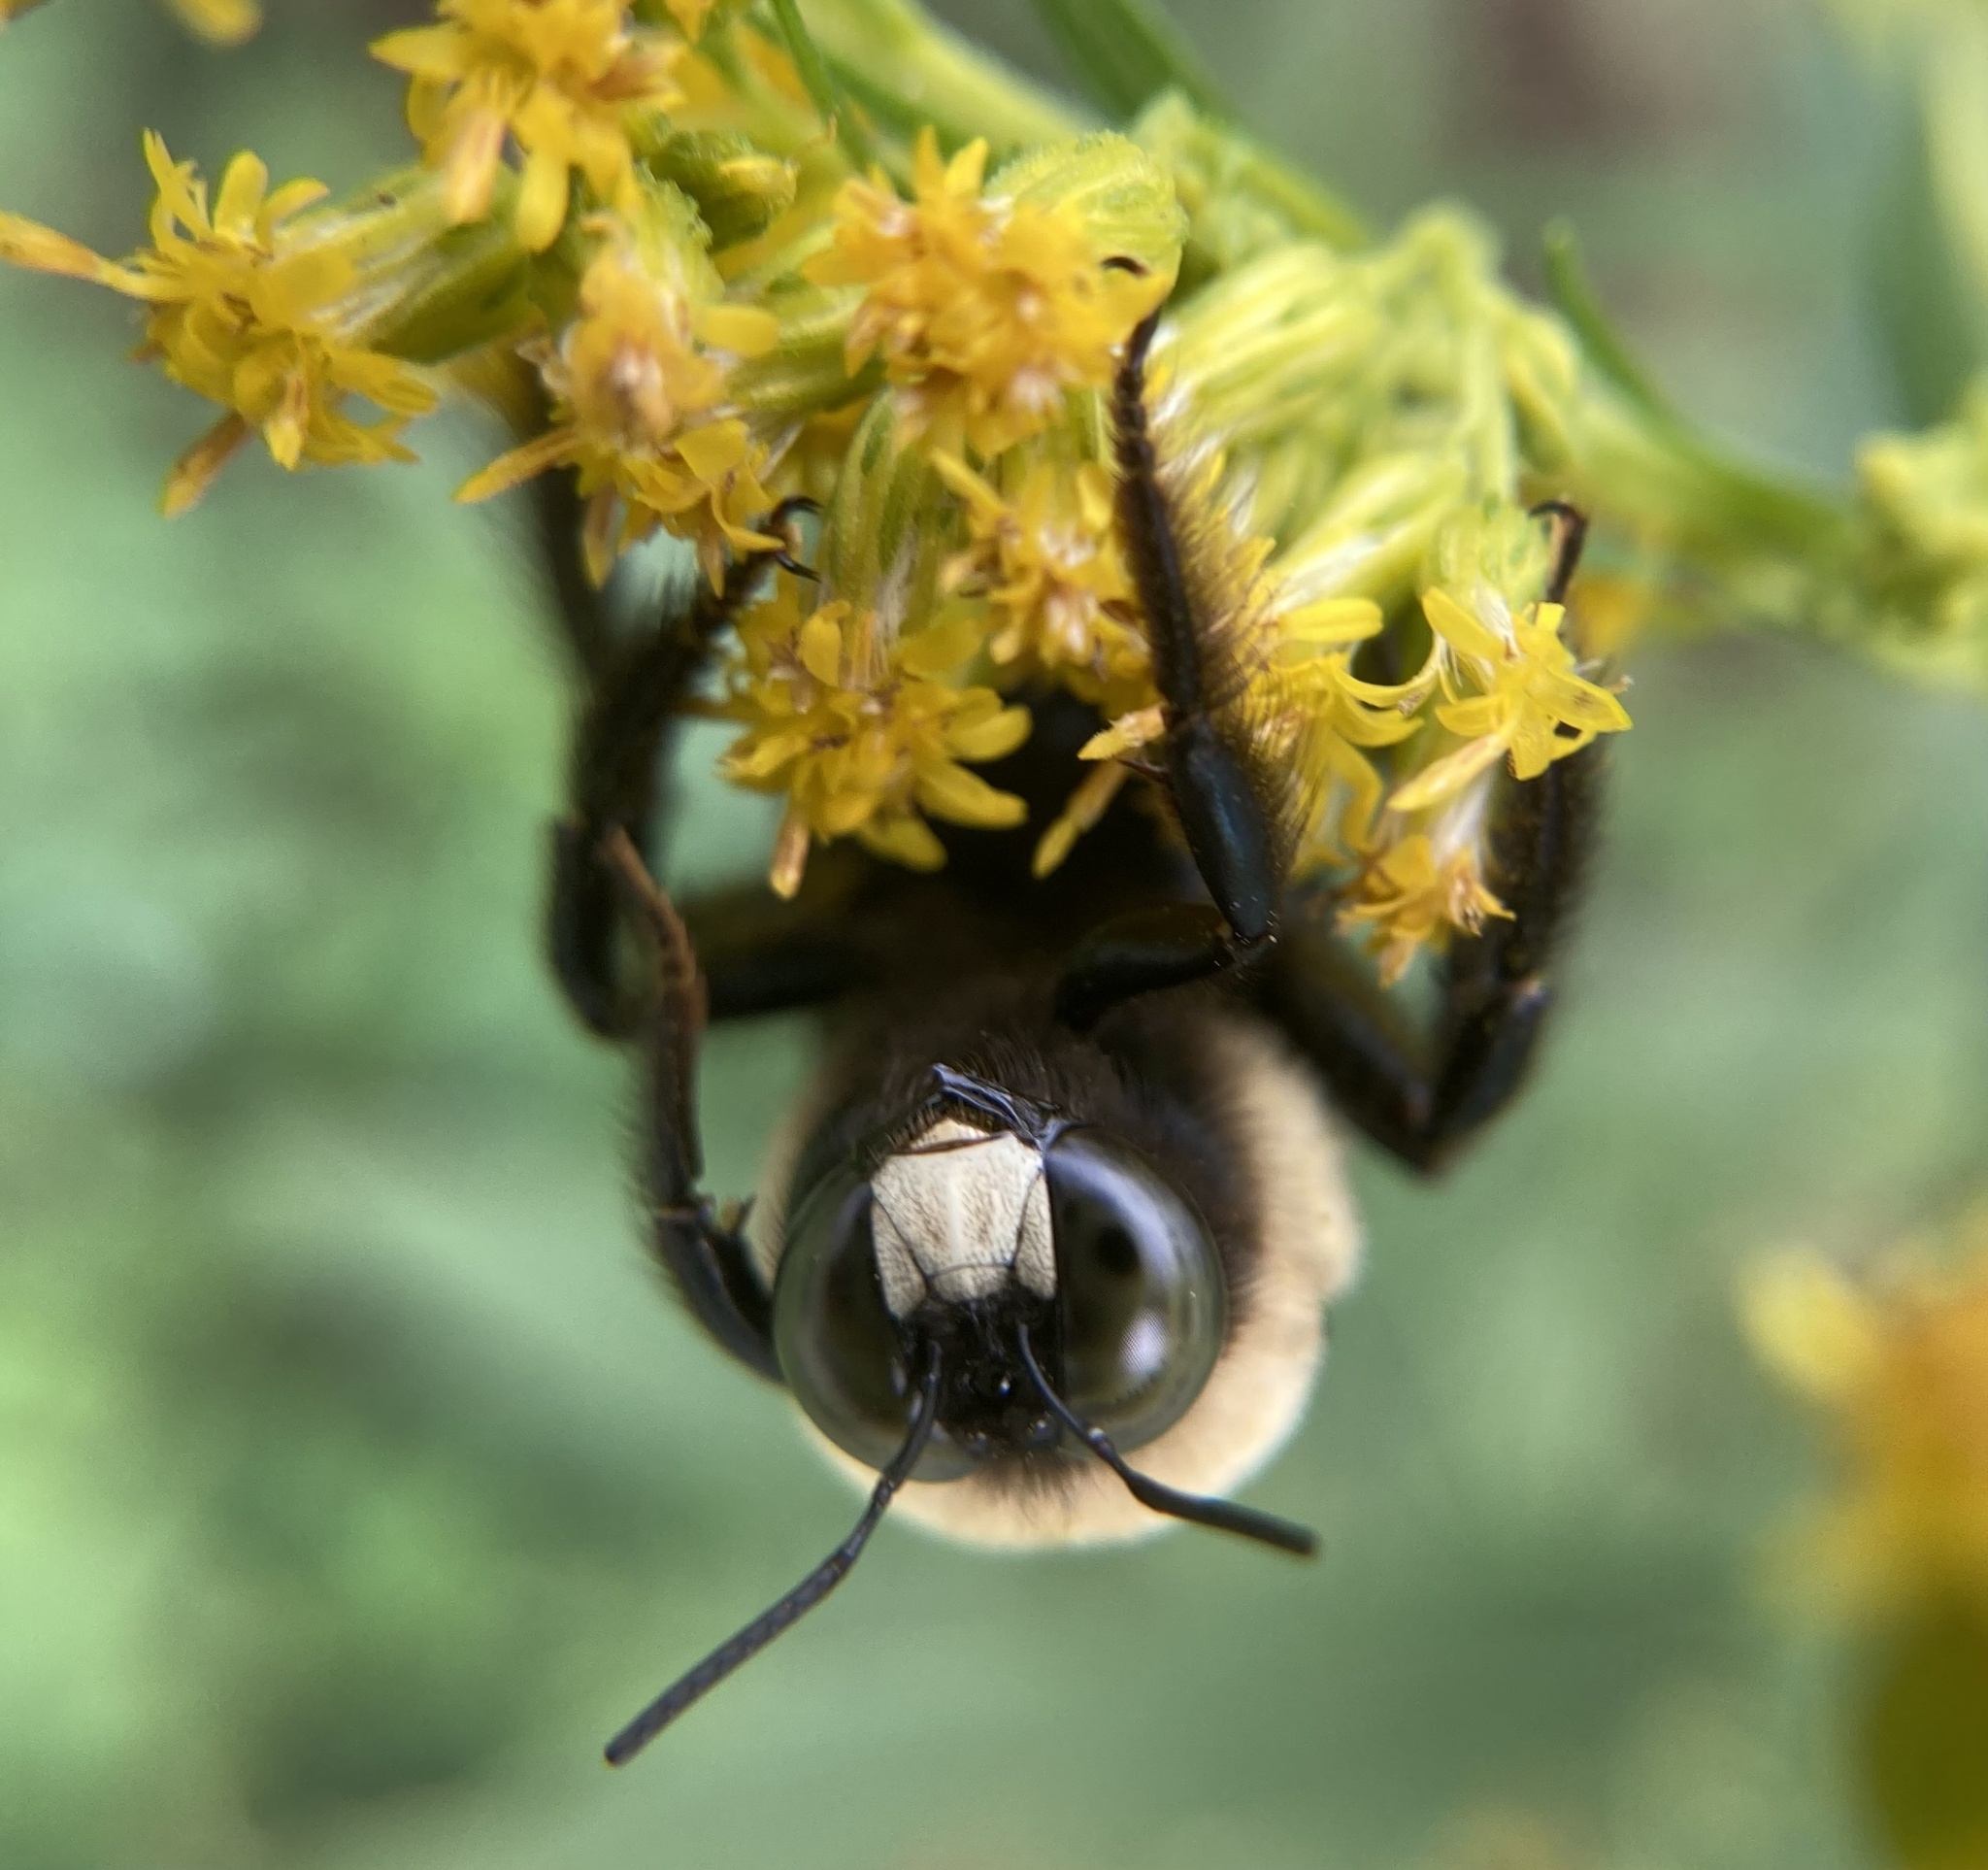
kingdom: Animalia
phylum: Arthropoda
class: Insecta
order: Hymenoptera
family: Apidae
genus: Xylocopa
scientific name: Xylocopa virginica
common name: Carpenter bee
